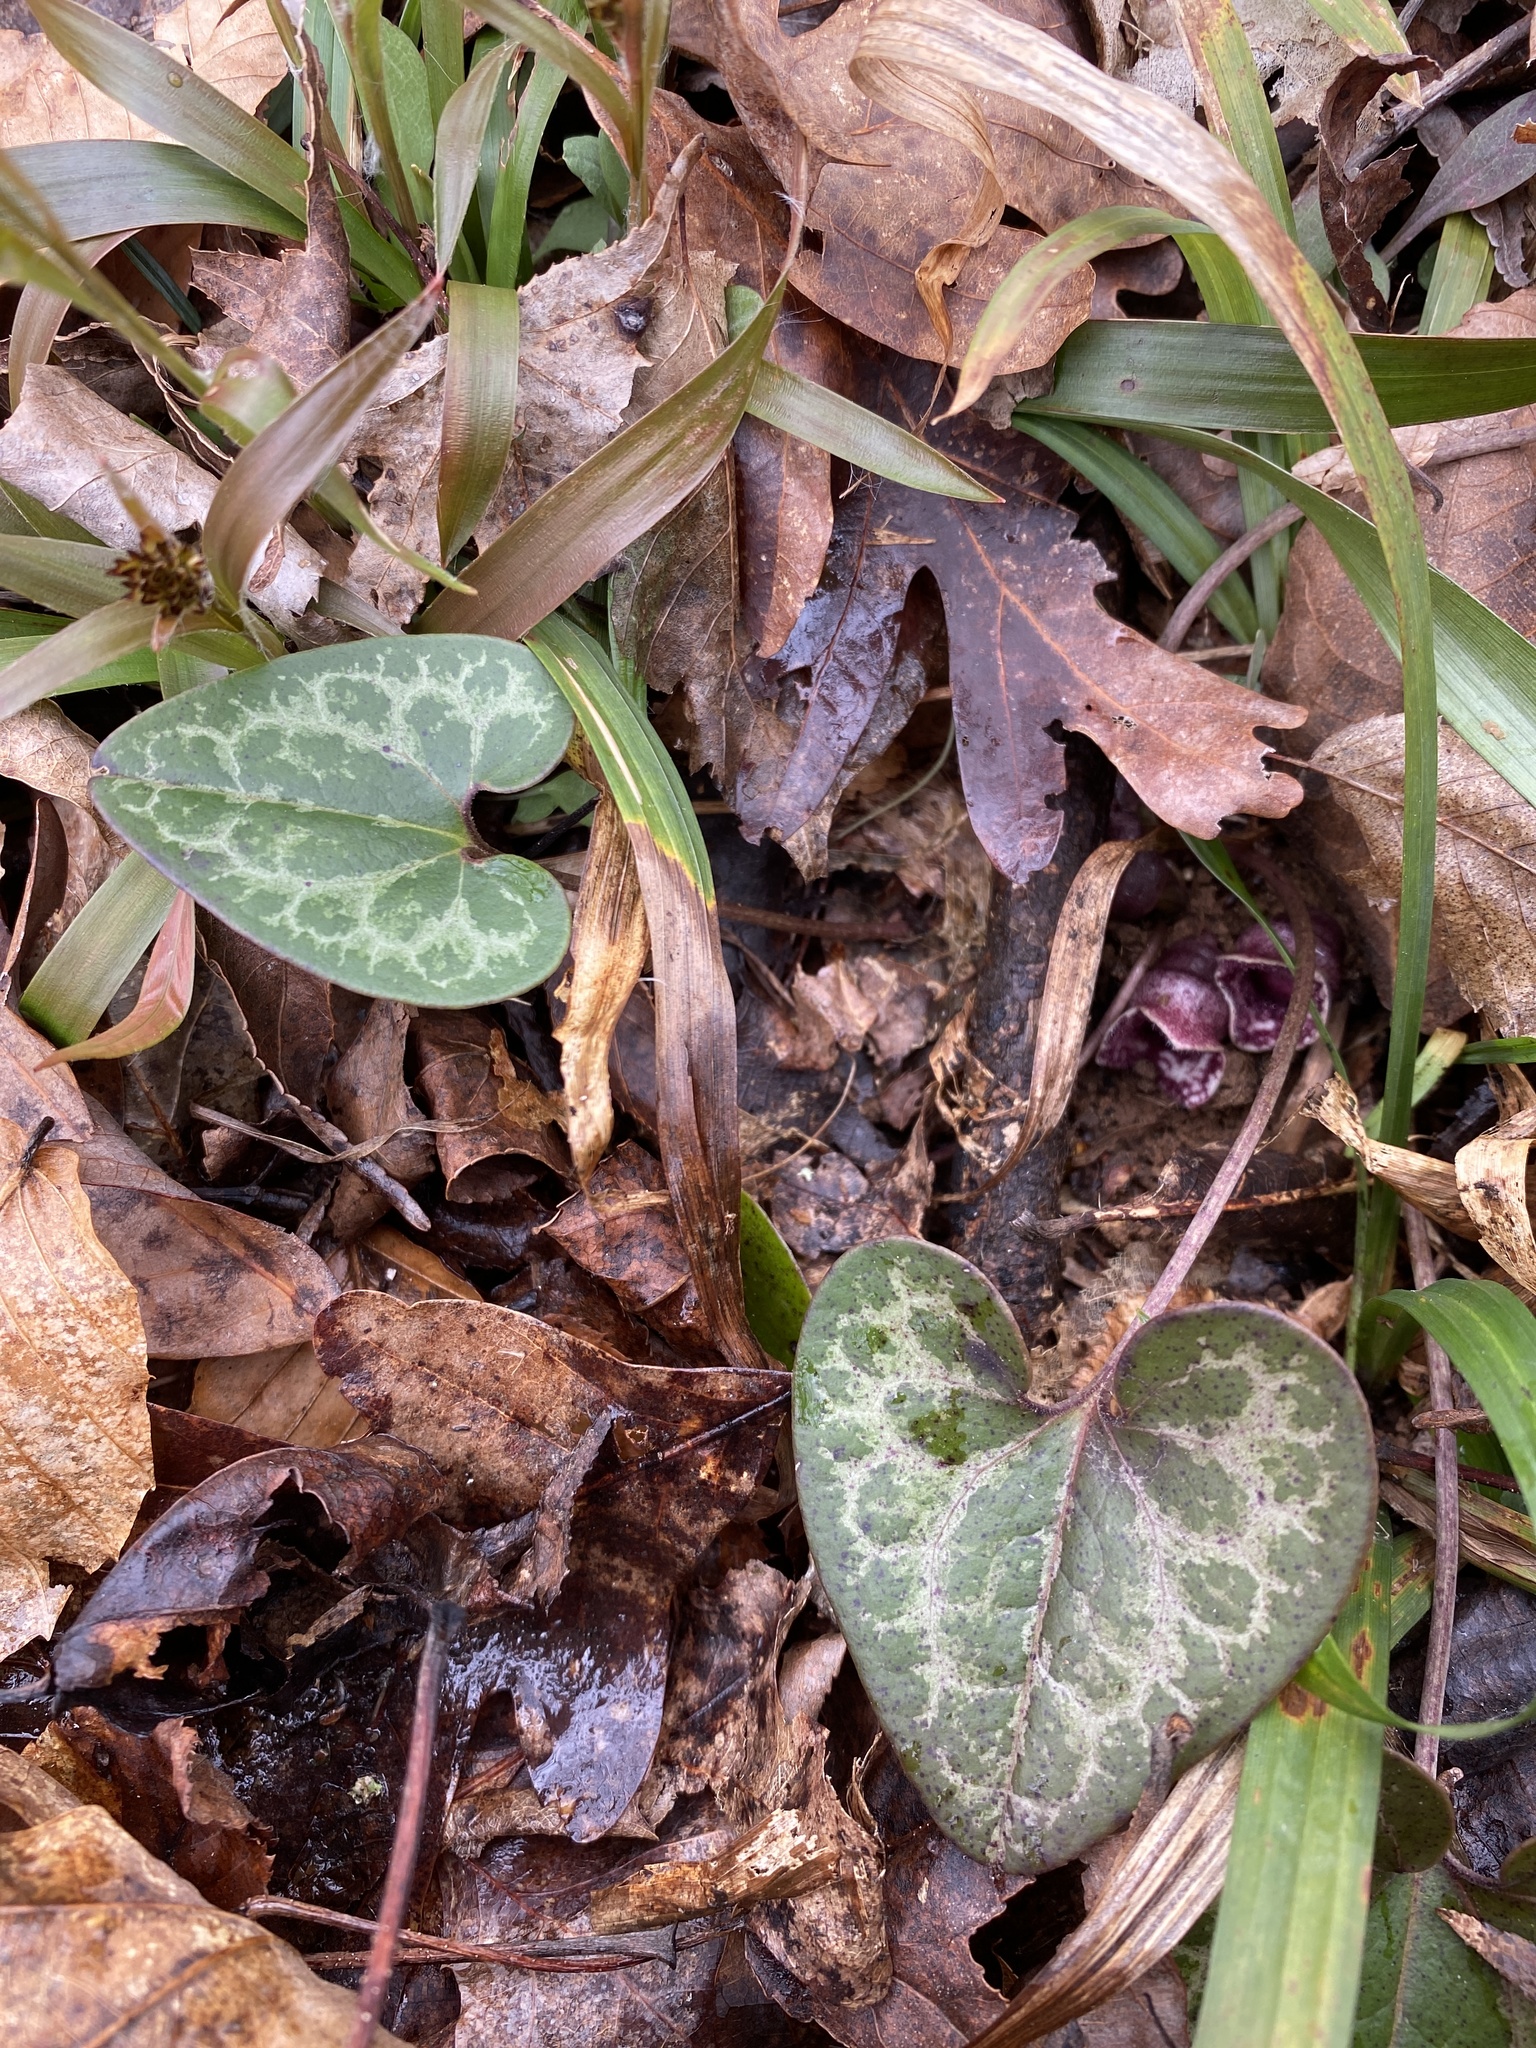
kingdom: Plantae
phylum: Tracheophyta
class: Magnoliopsida
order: Piperales
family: Aristolochiaceae
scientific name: Aristolochiaceae
